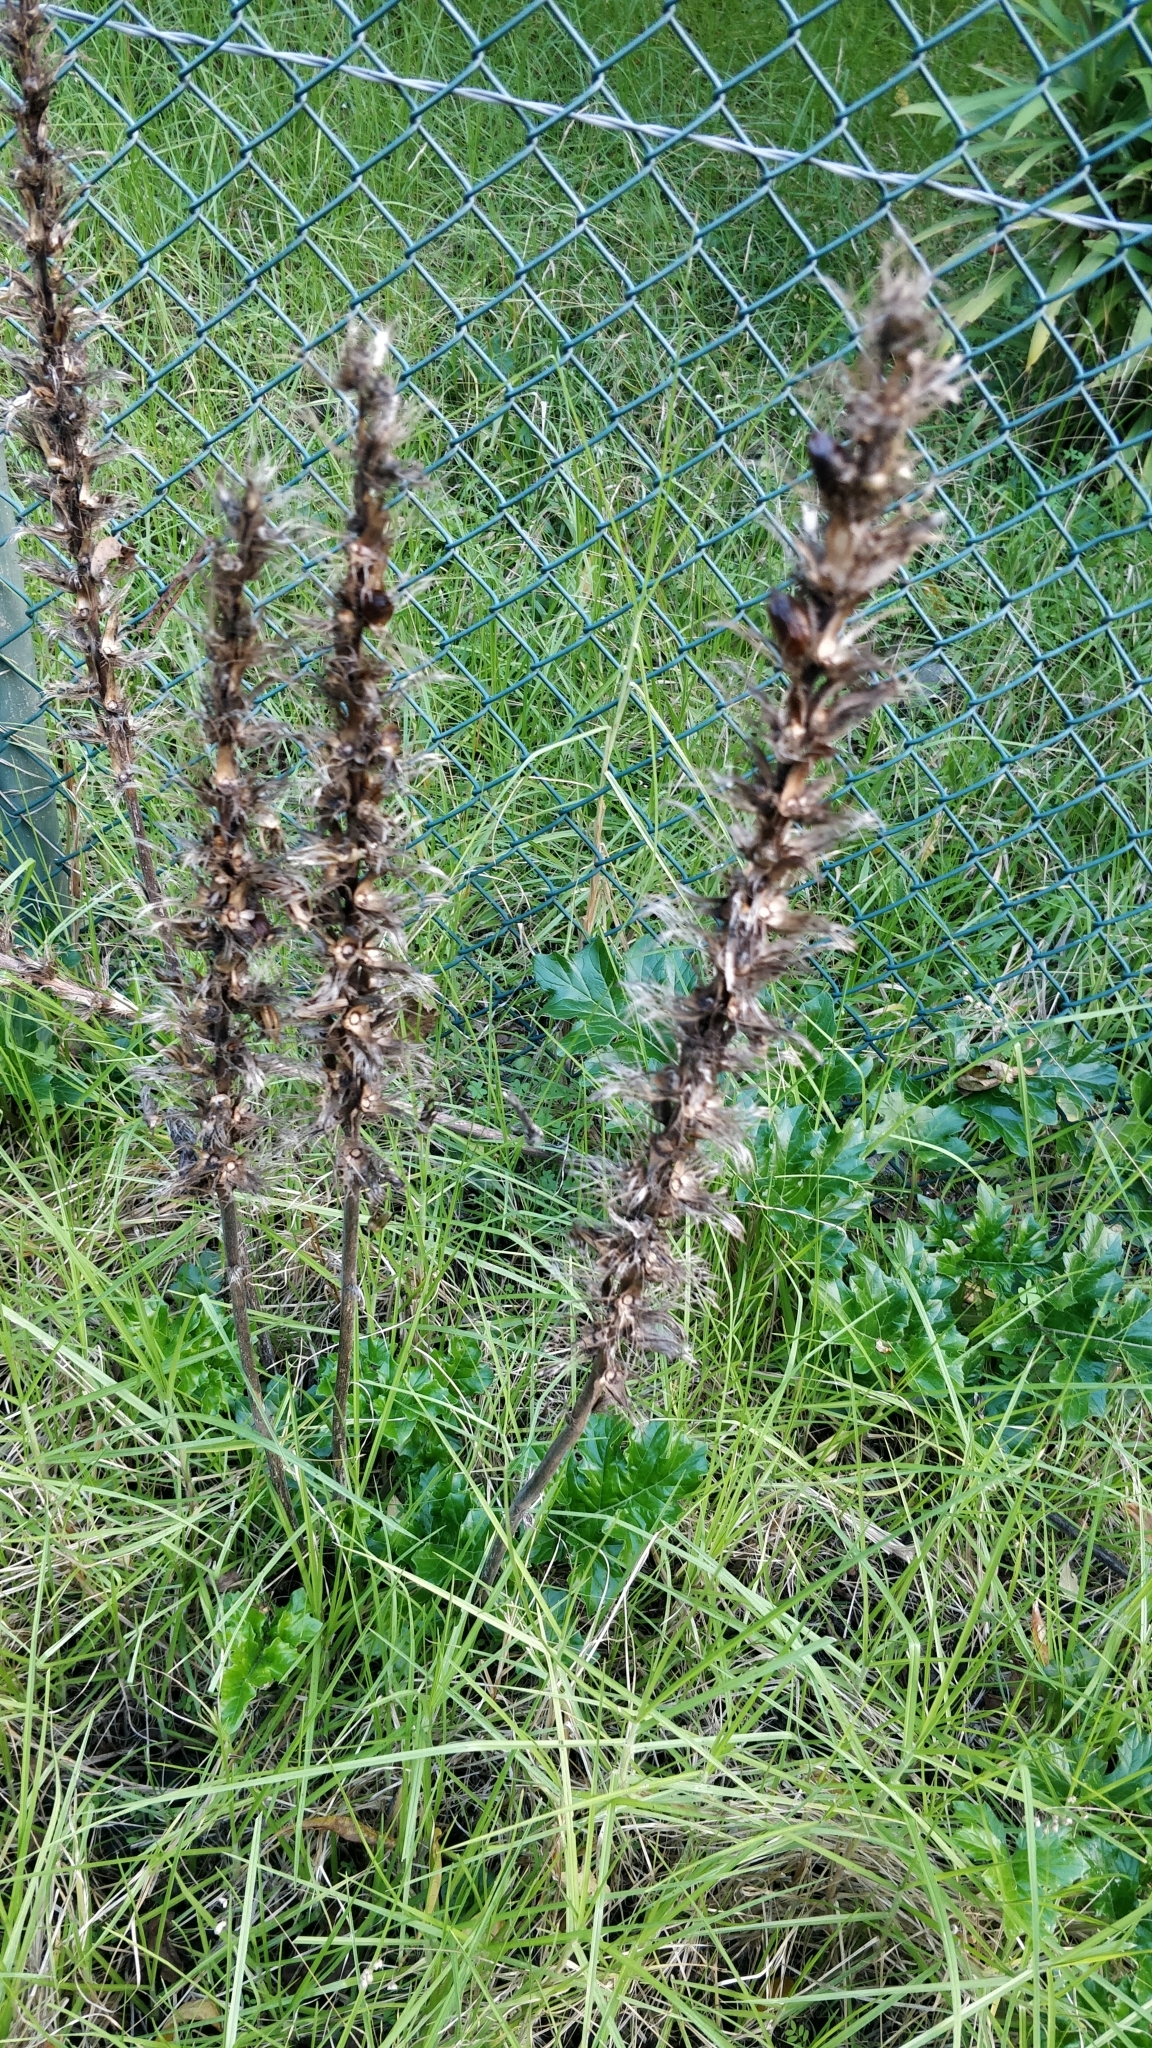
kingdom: Plantae
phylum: Tracheophyta
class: Magnoliopsida
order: Lamiales
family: Acanthaceae
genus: Acanthus
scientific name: Acanthus mollis
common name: Bear's-breech
